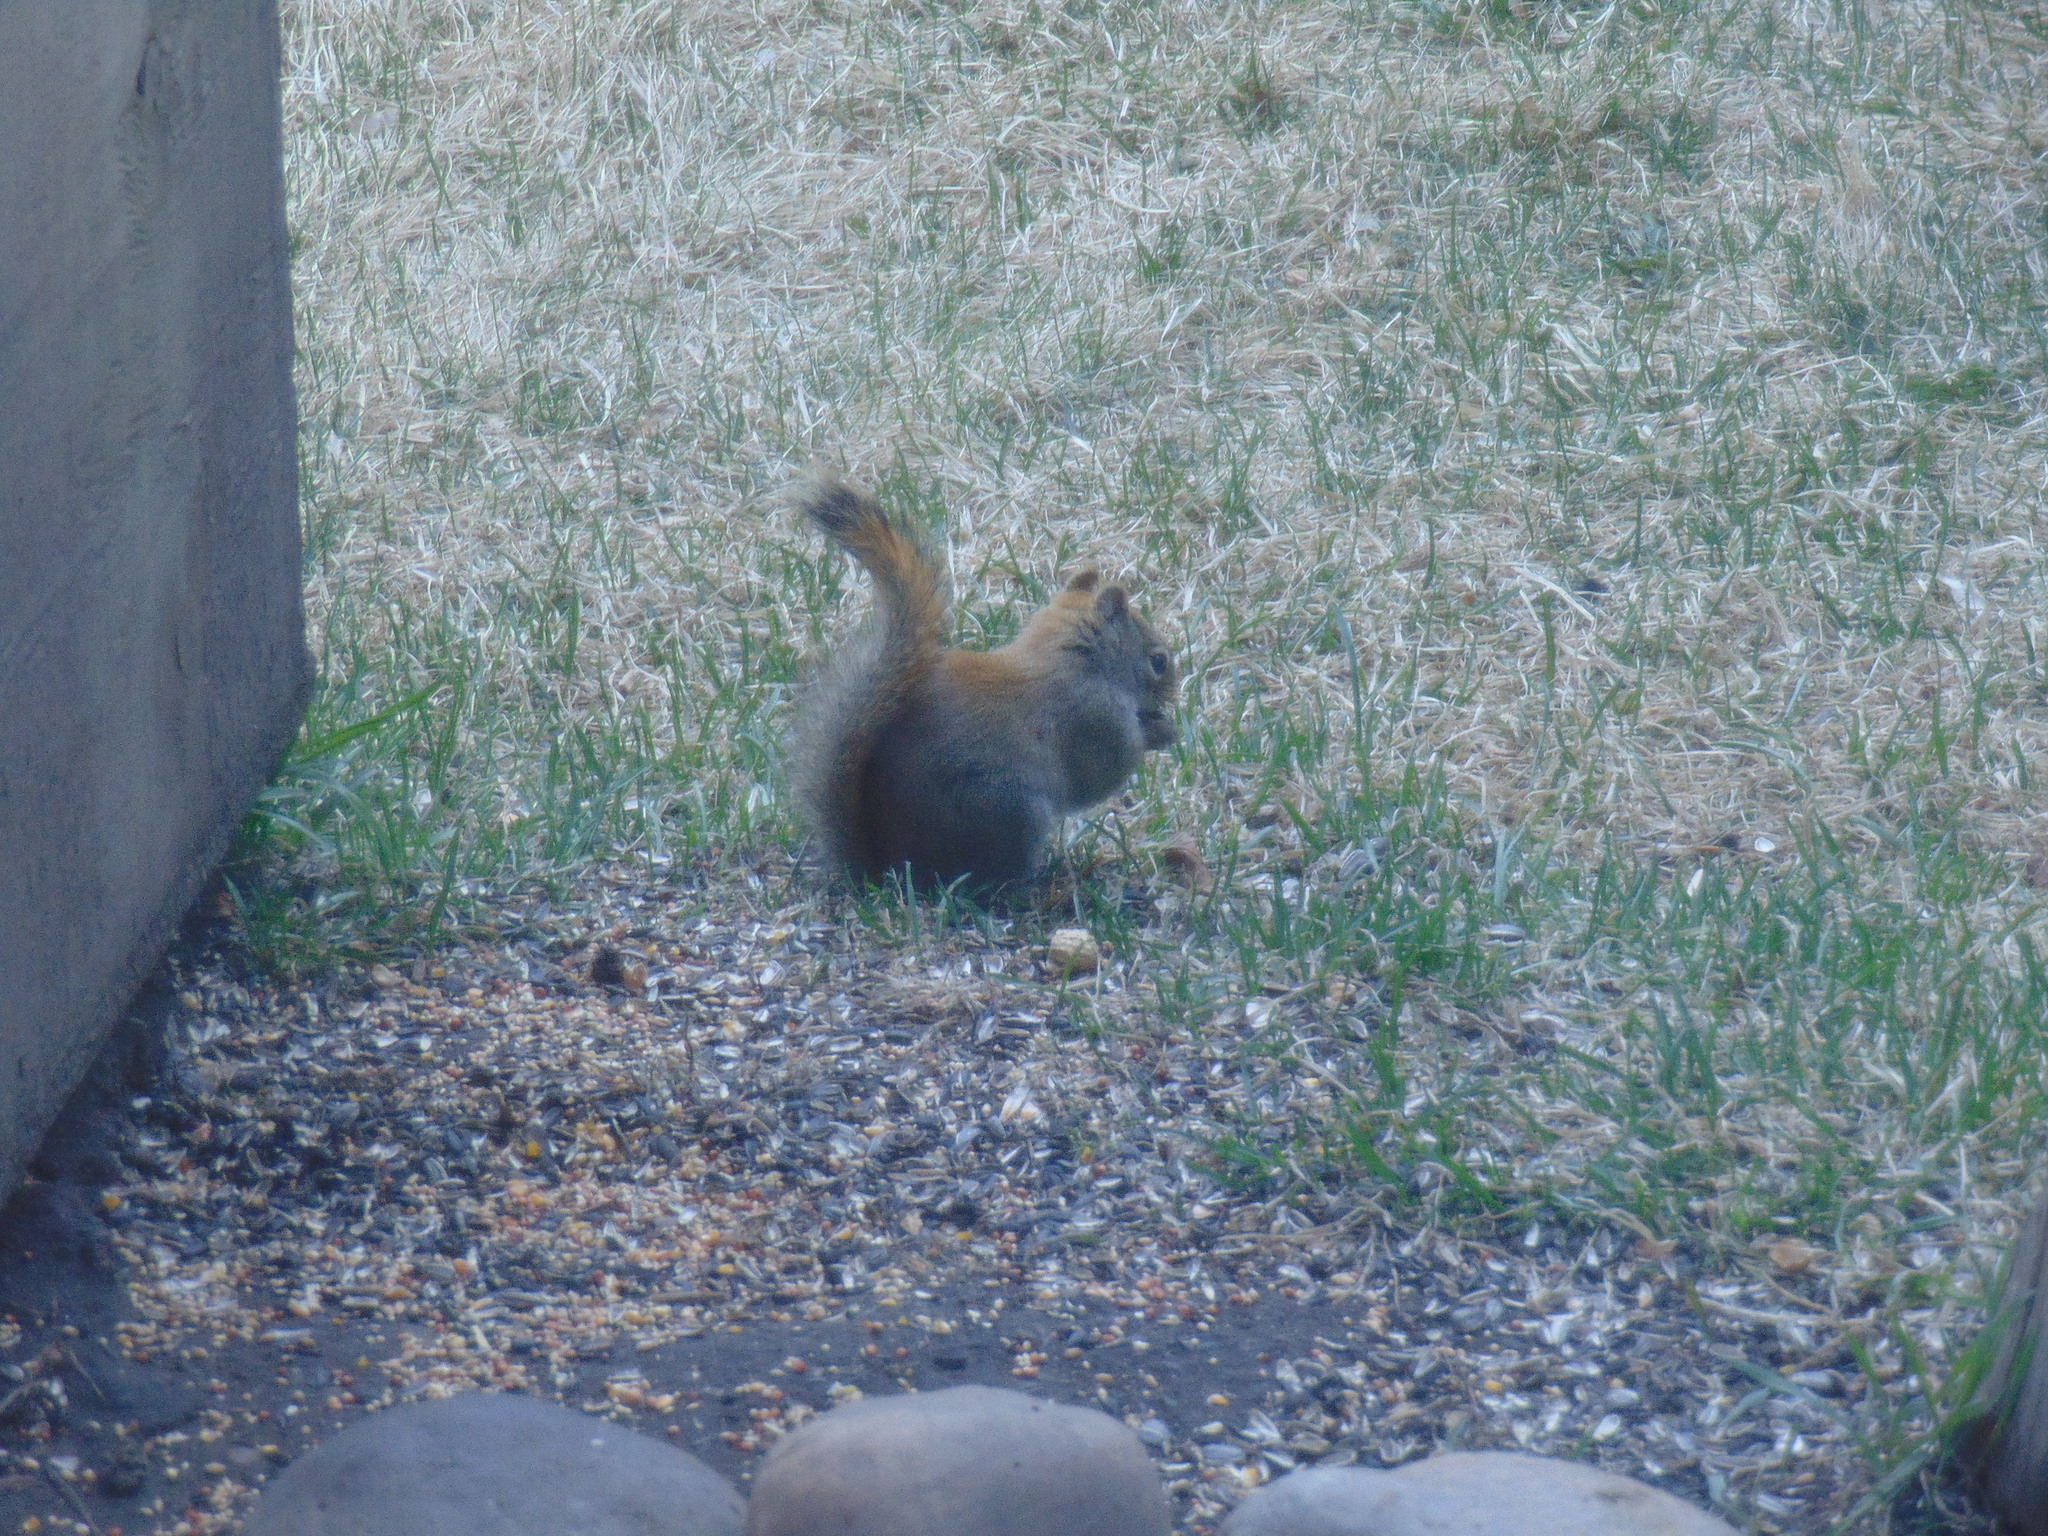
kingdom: Animalia
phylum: Chordata
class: Mammalia
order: Rodentia
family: Sciuridae
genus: Tamiasciurus
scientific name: Tamiasciurus hudsonicus
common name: Red squirrel
